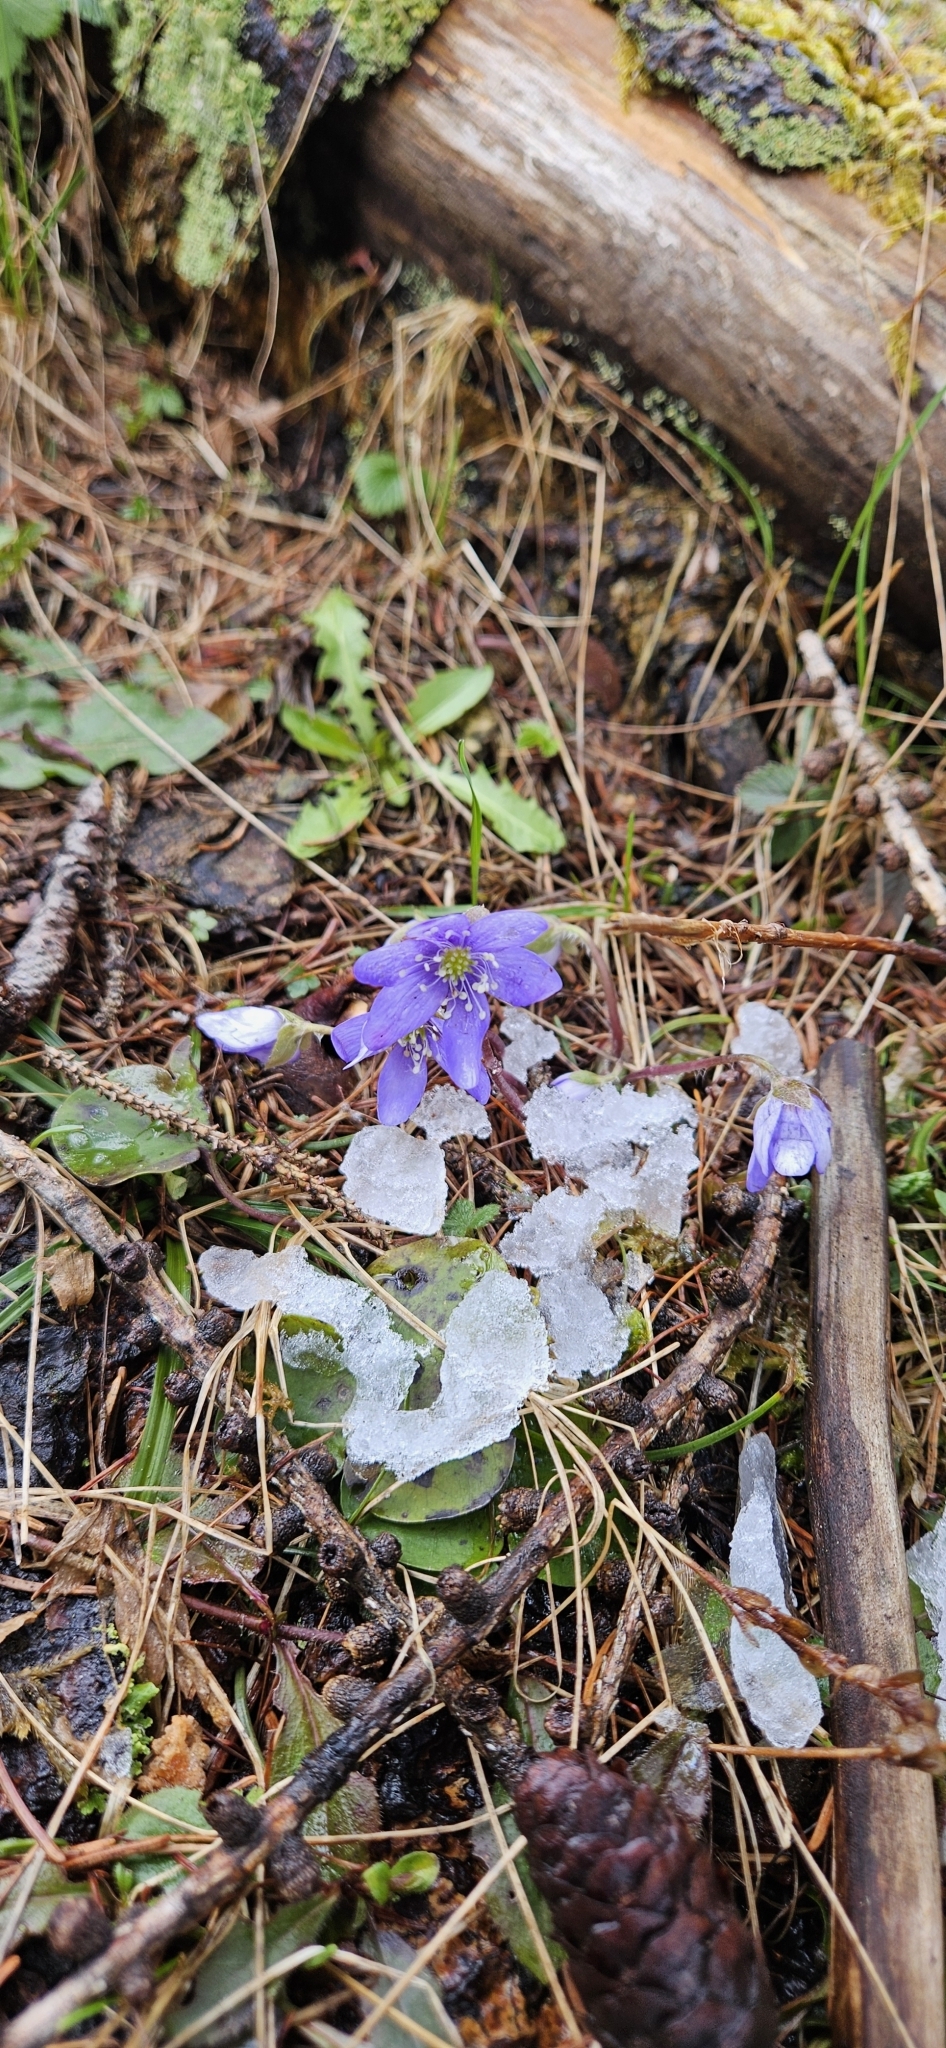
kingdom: Plantae
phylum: Tracheophyta
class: Magnoliopsida
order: Ranunculales
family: Ranunculaceae
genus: Hepatica
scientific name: Hepatica nobilis
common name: Liverleaf
